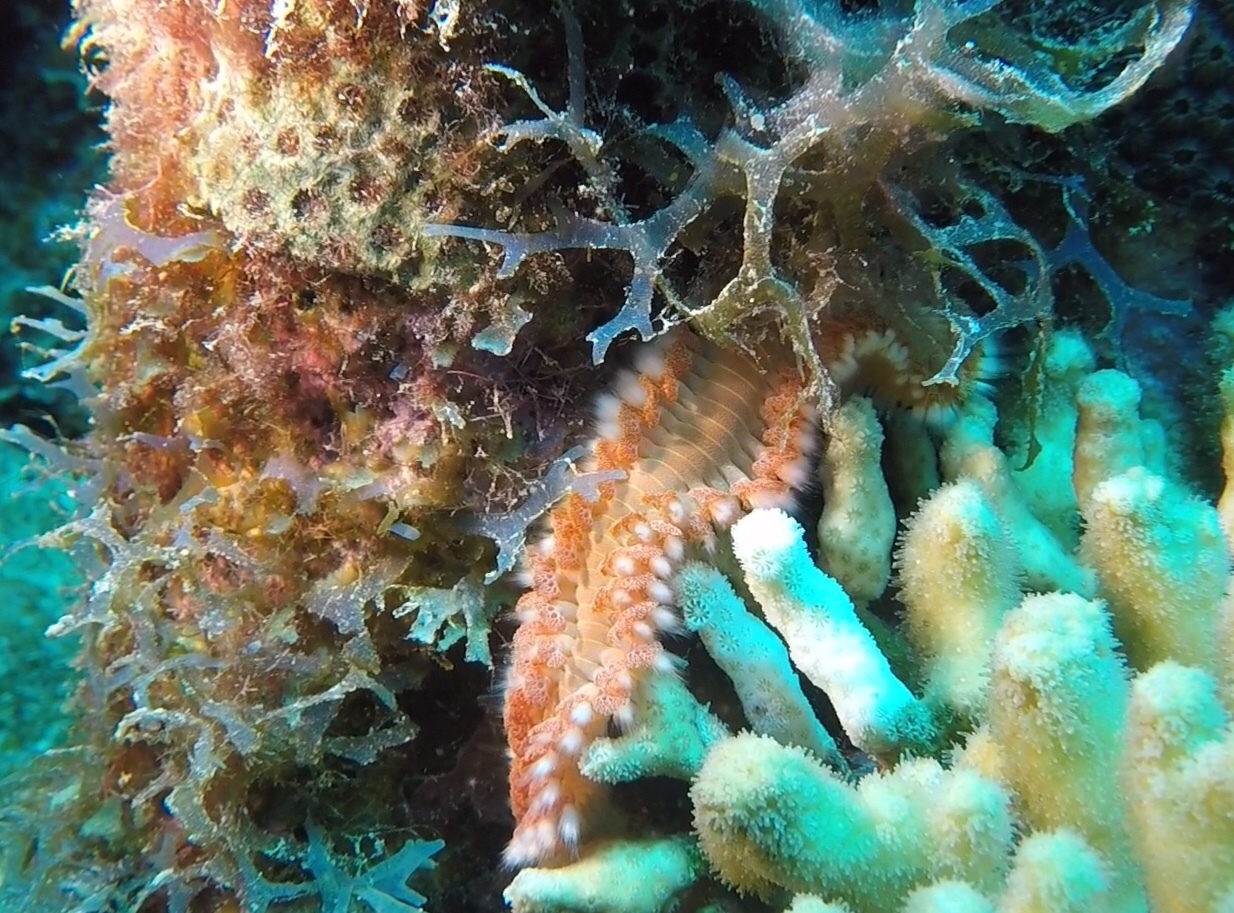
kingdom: Animalia
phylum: Annelida
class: Polychaeta
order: Amphinomida
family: Amphinomidae
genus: Hermodice
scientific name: Hermodice carunculata
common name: Bearded fireworm
